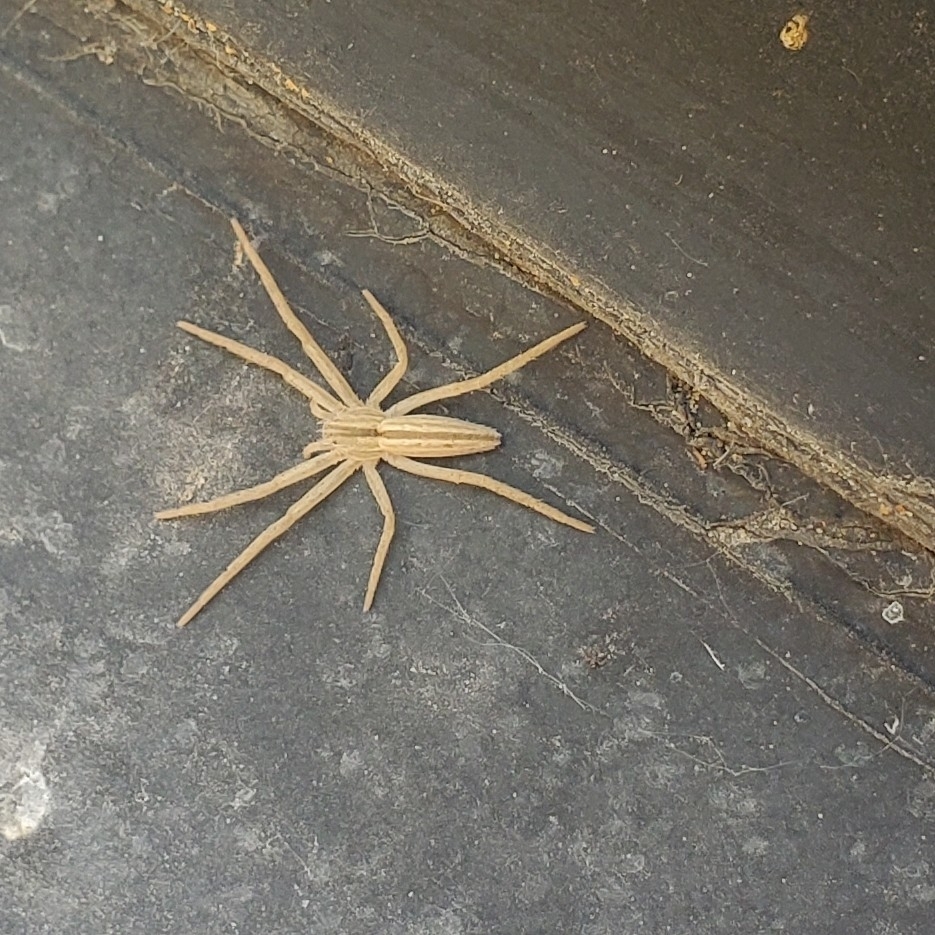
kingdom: Animalia
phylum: Arthropoda
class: Arachnida
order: Araneae
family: Philodromidae
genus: Tibellus
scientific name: Tibellus maritimus
